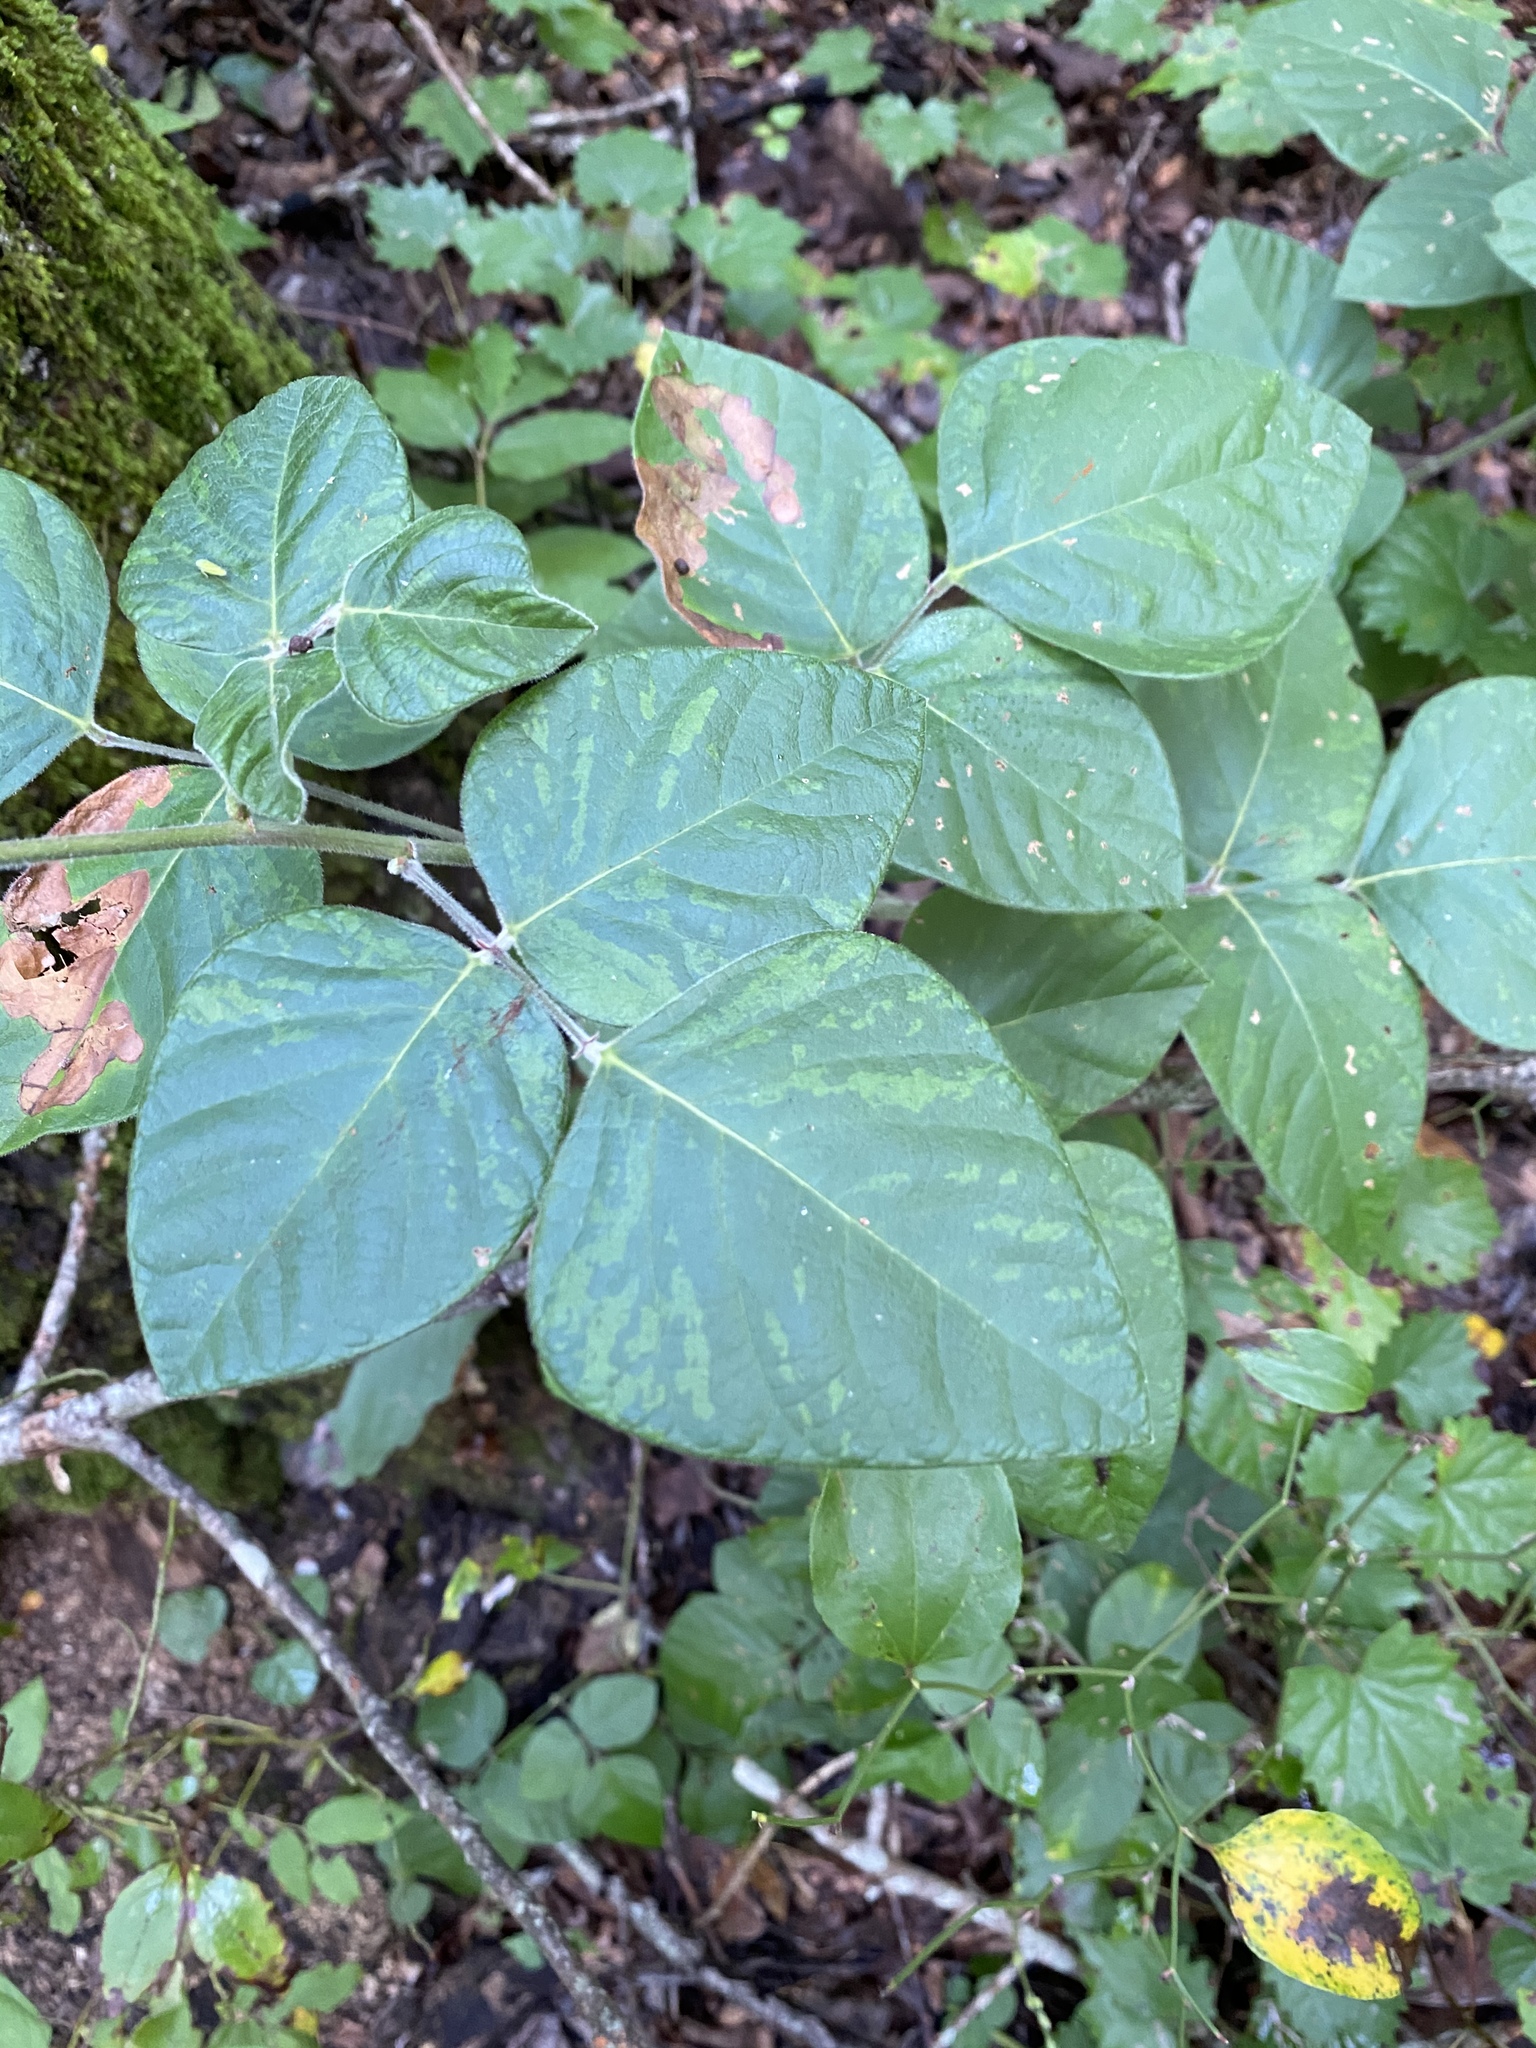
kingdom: Plantae
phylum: Tracheophyta
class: Magnoliopsida
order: Fabales
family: Fabaceae
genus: Hylodesmum
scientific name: Hylodesmum glutinosum
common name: Clustered-leaved tick-trefoil
